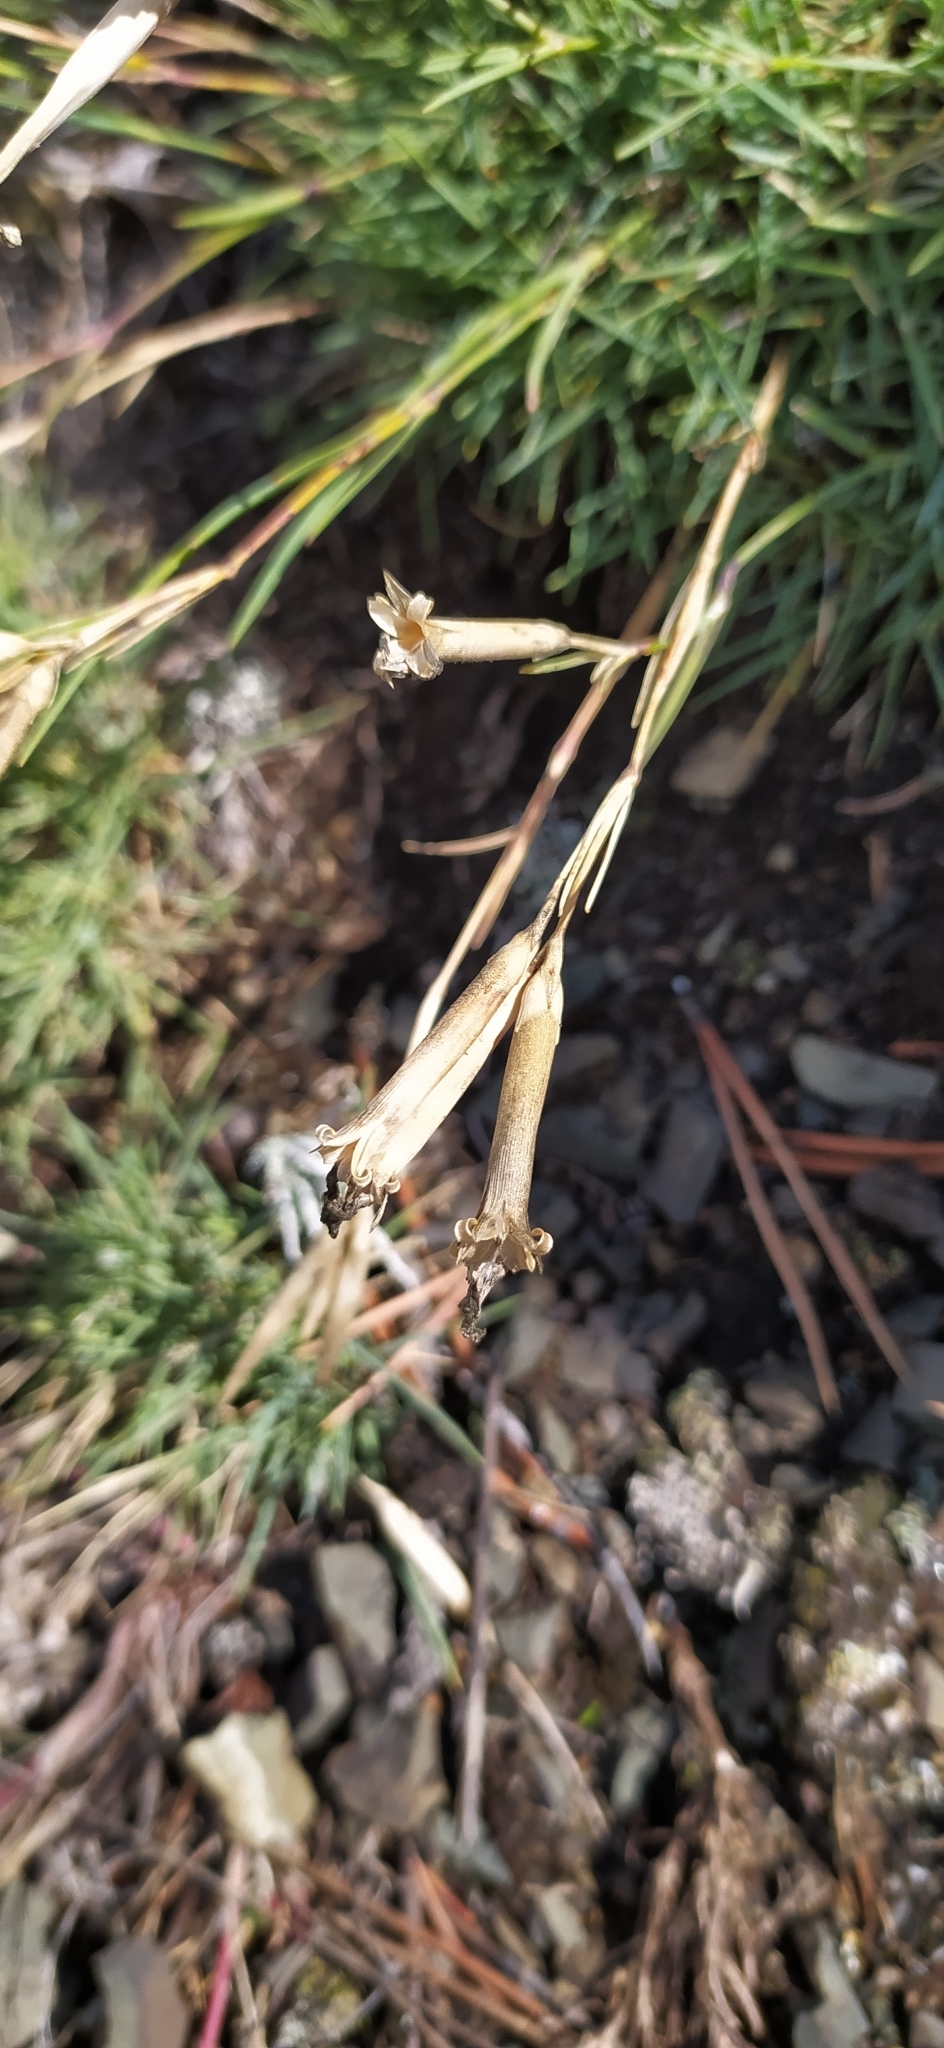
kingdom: Plantae
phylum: Tracheophyta
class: Magnoliopsida
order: Caryophyllales
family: Caryophyllaceae
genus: Dianthus
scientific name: Dianthus acicularis
